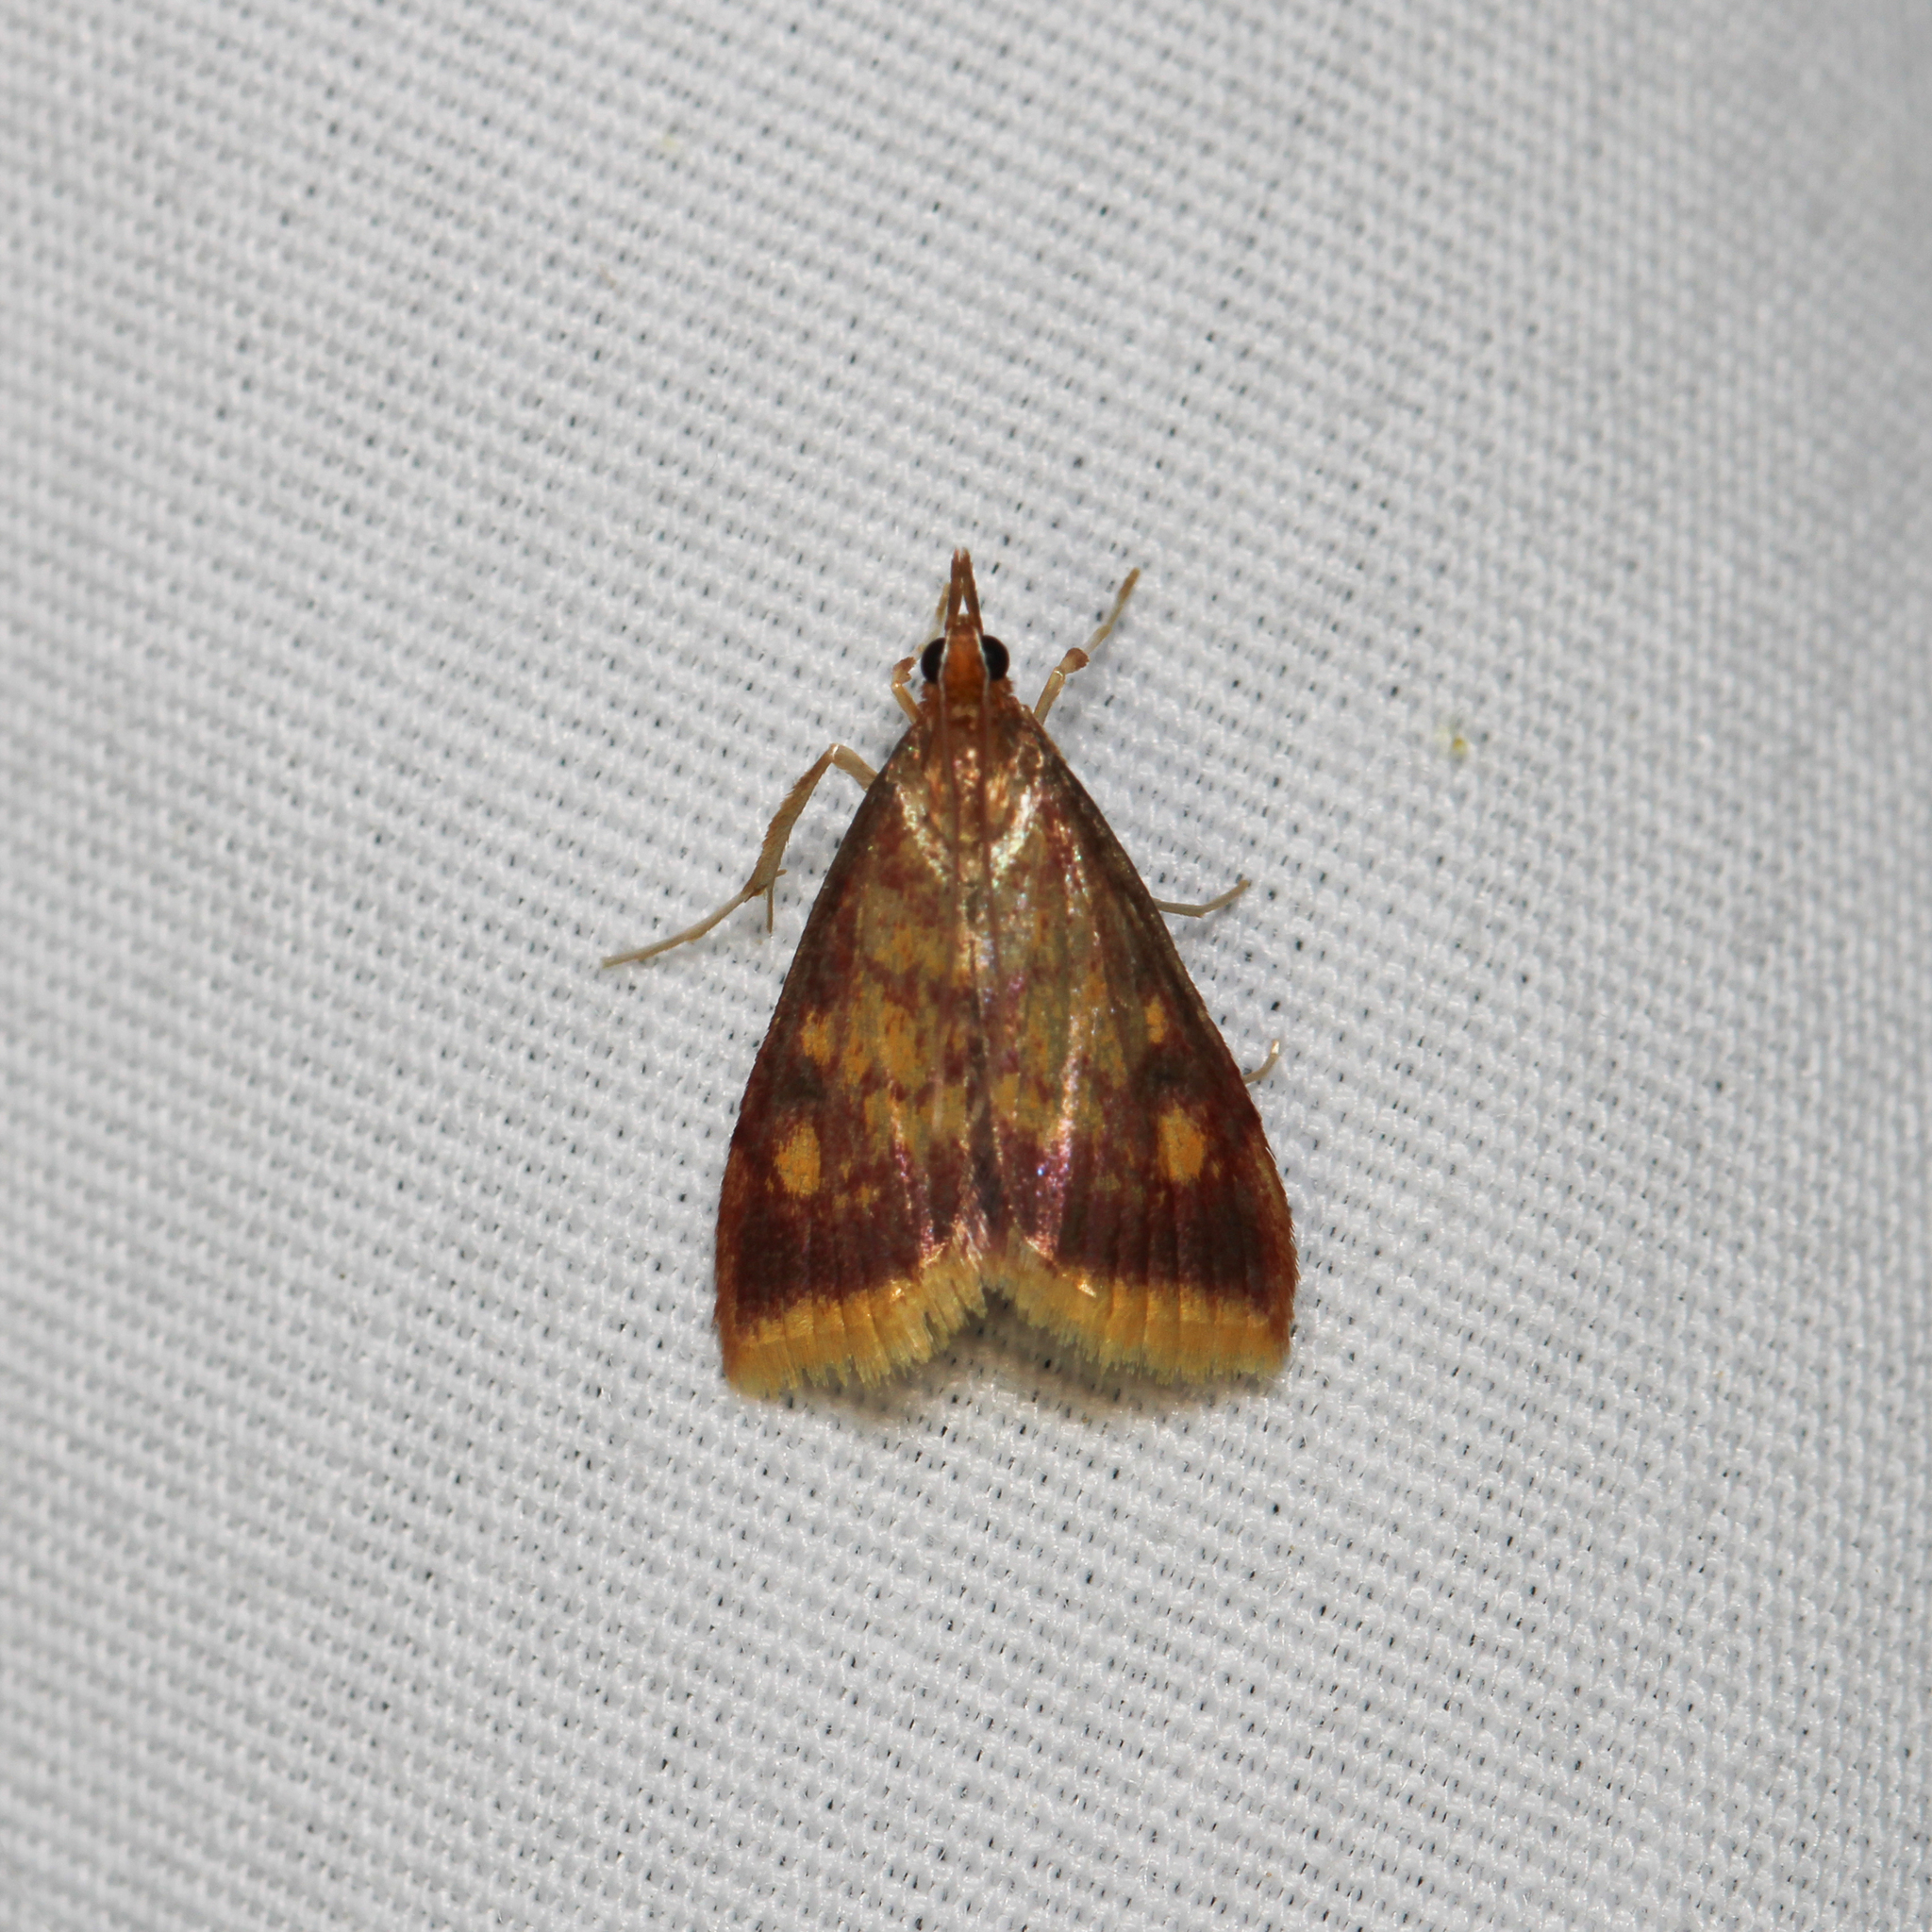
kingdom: Animalia
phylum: Arthropoda
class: Insecta
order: Lepidoptera
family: Crambidae
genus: Pyrausta
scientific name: Pyrausta acrionalis
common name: Mint-loving pyrausta moth
